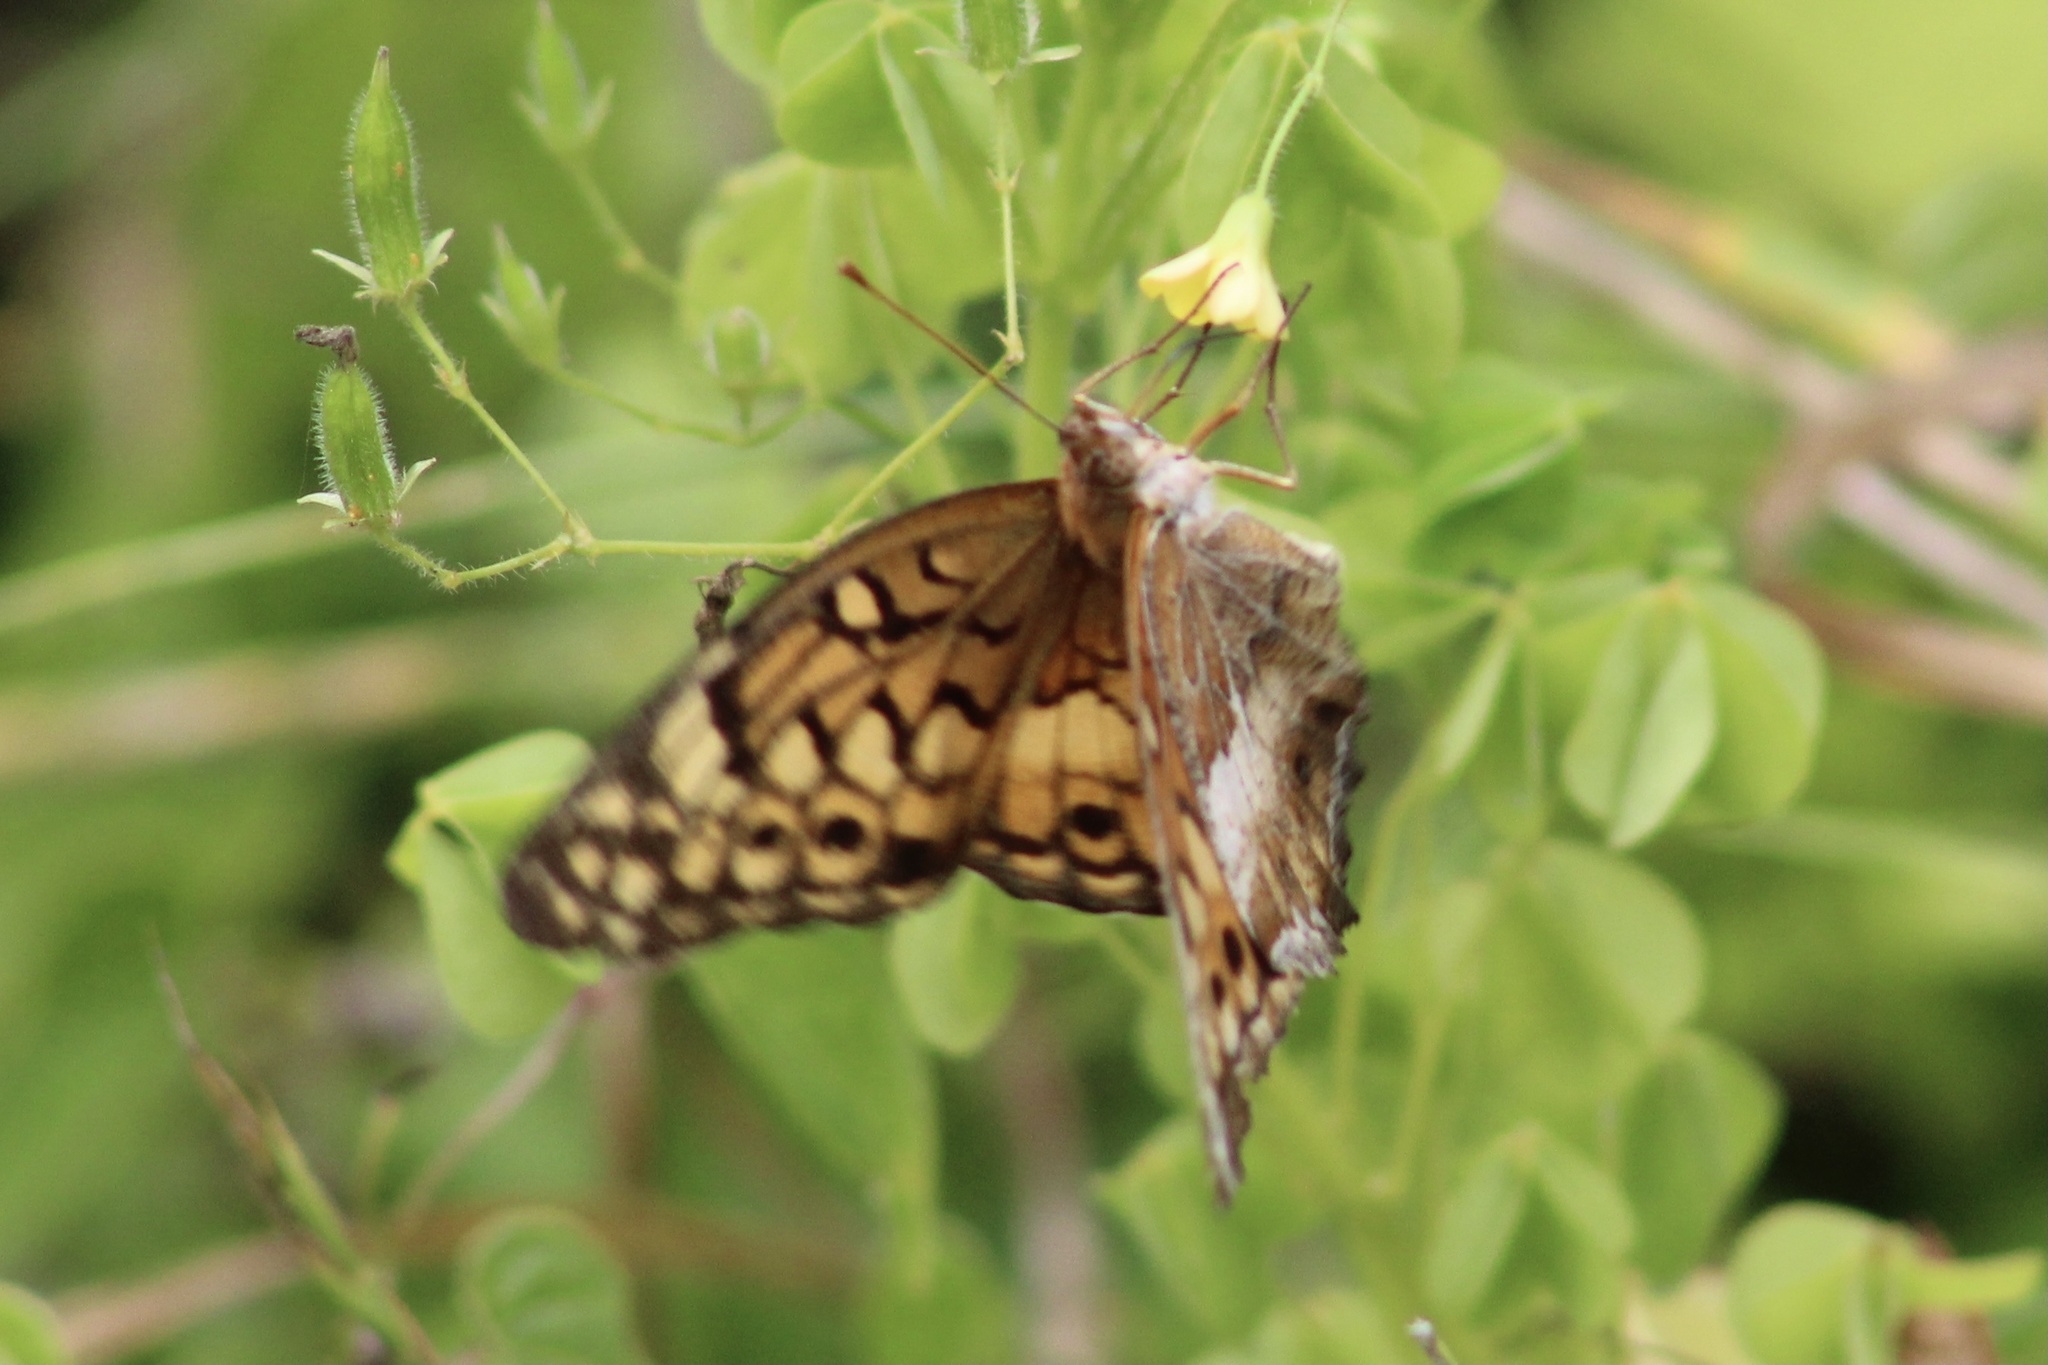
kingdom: Animalia
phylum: Arthropoda
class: Insecta
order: Lepidoptera
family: Nymphalidae
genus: Euptoieta
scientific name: Euptoieta claudia
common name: Variegated fritillary
